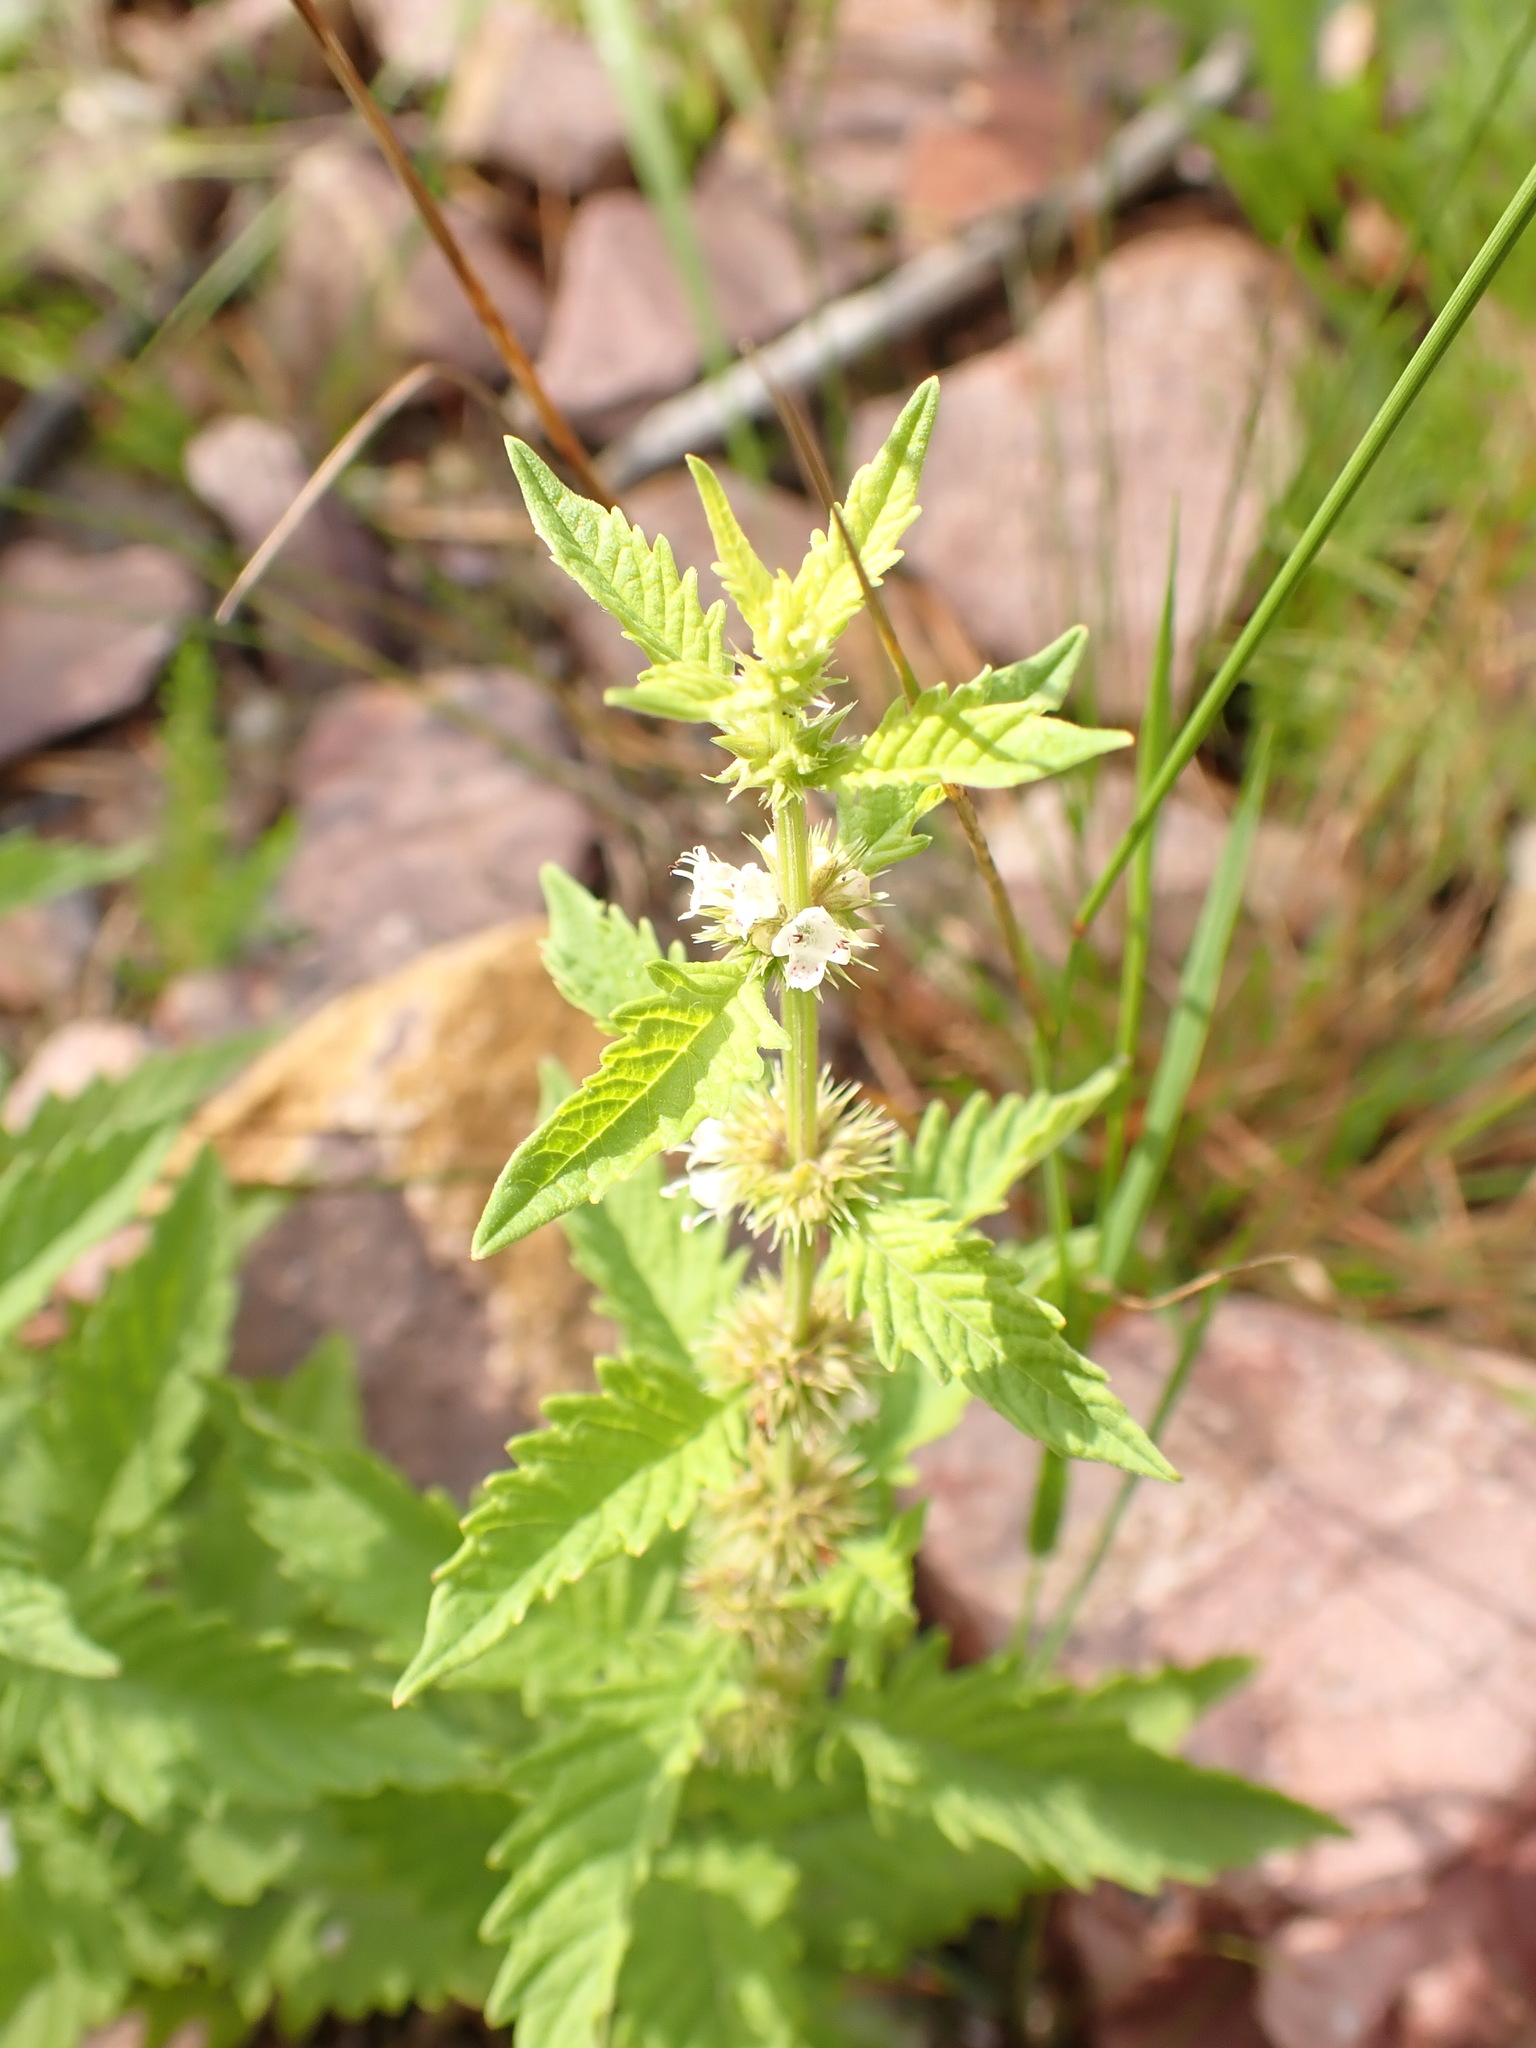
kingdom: Plantae
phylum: Tracheophyta
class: Magnoliopsida
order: Lamiales
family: Lamiaceae
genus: Lycopus
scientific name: Lycopus europaeus
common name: European bugleweed
